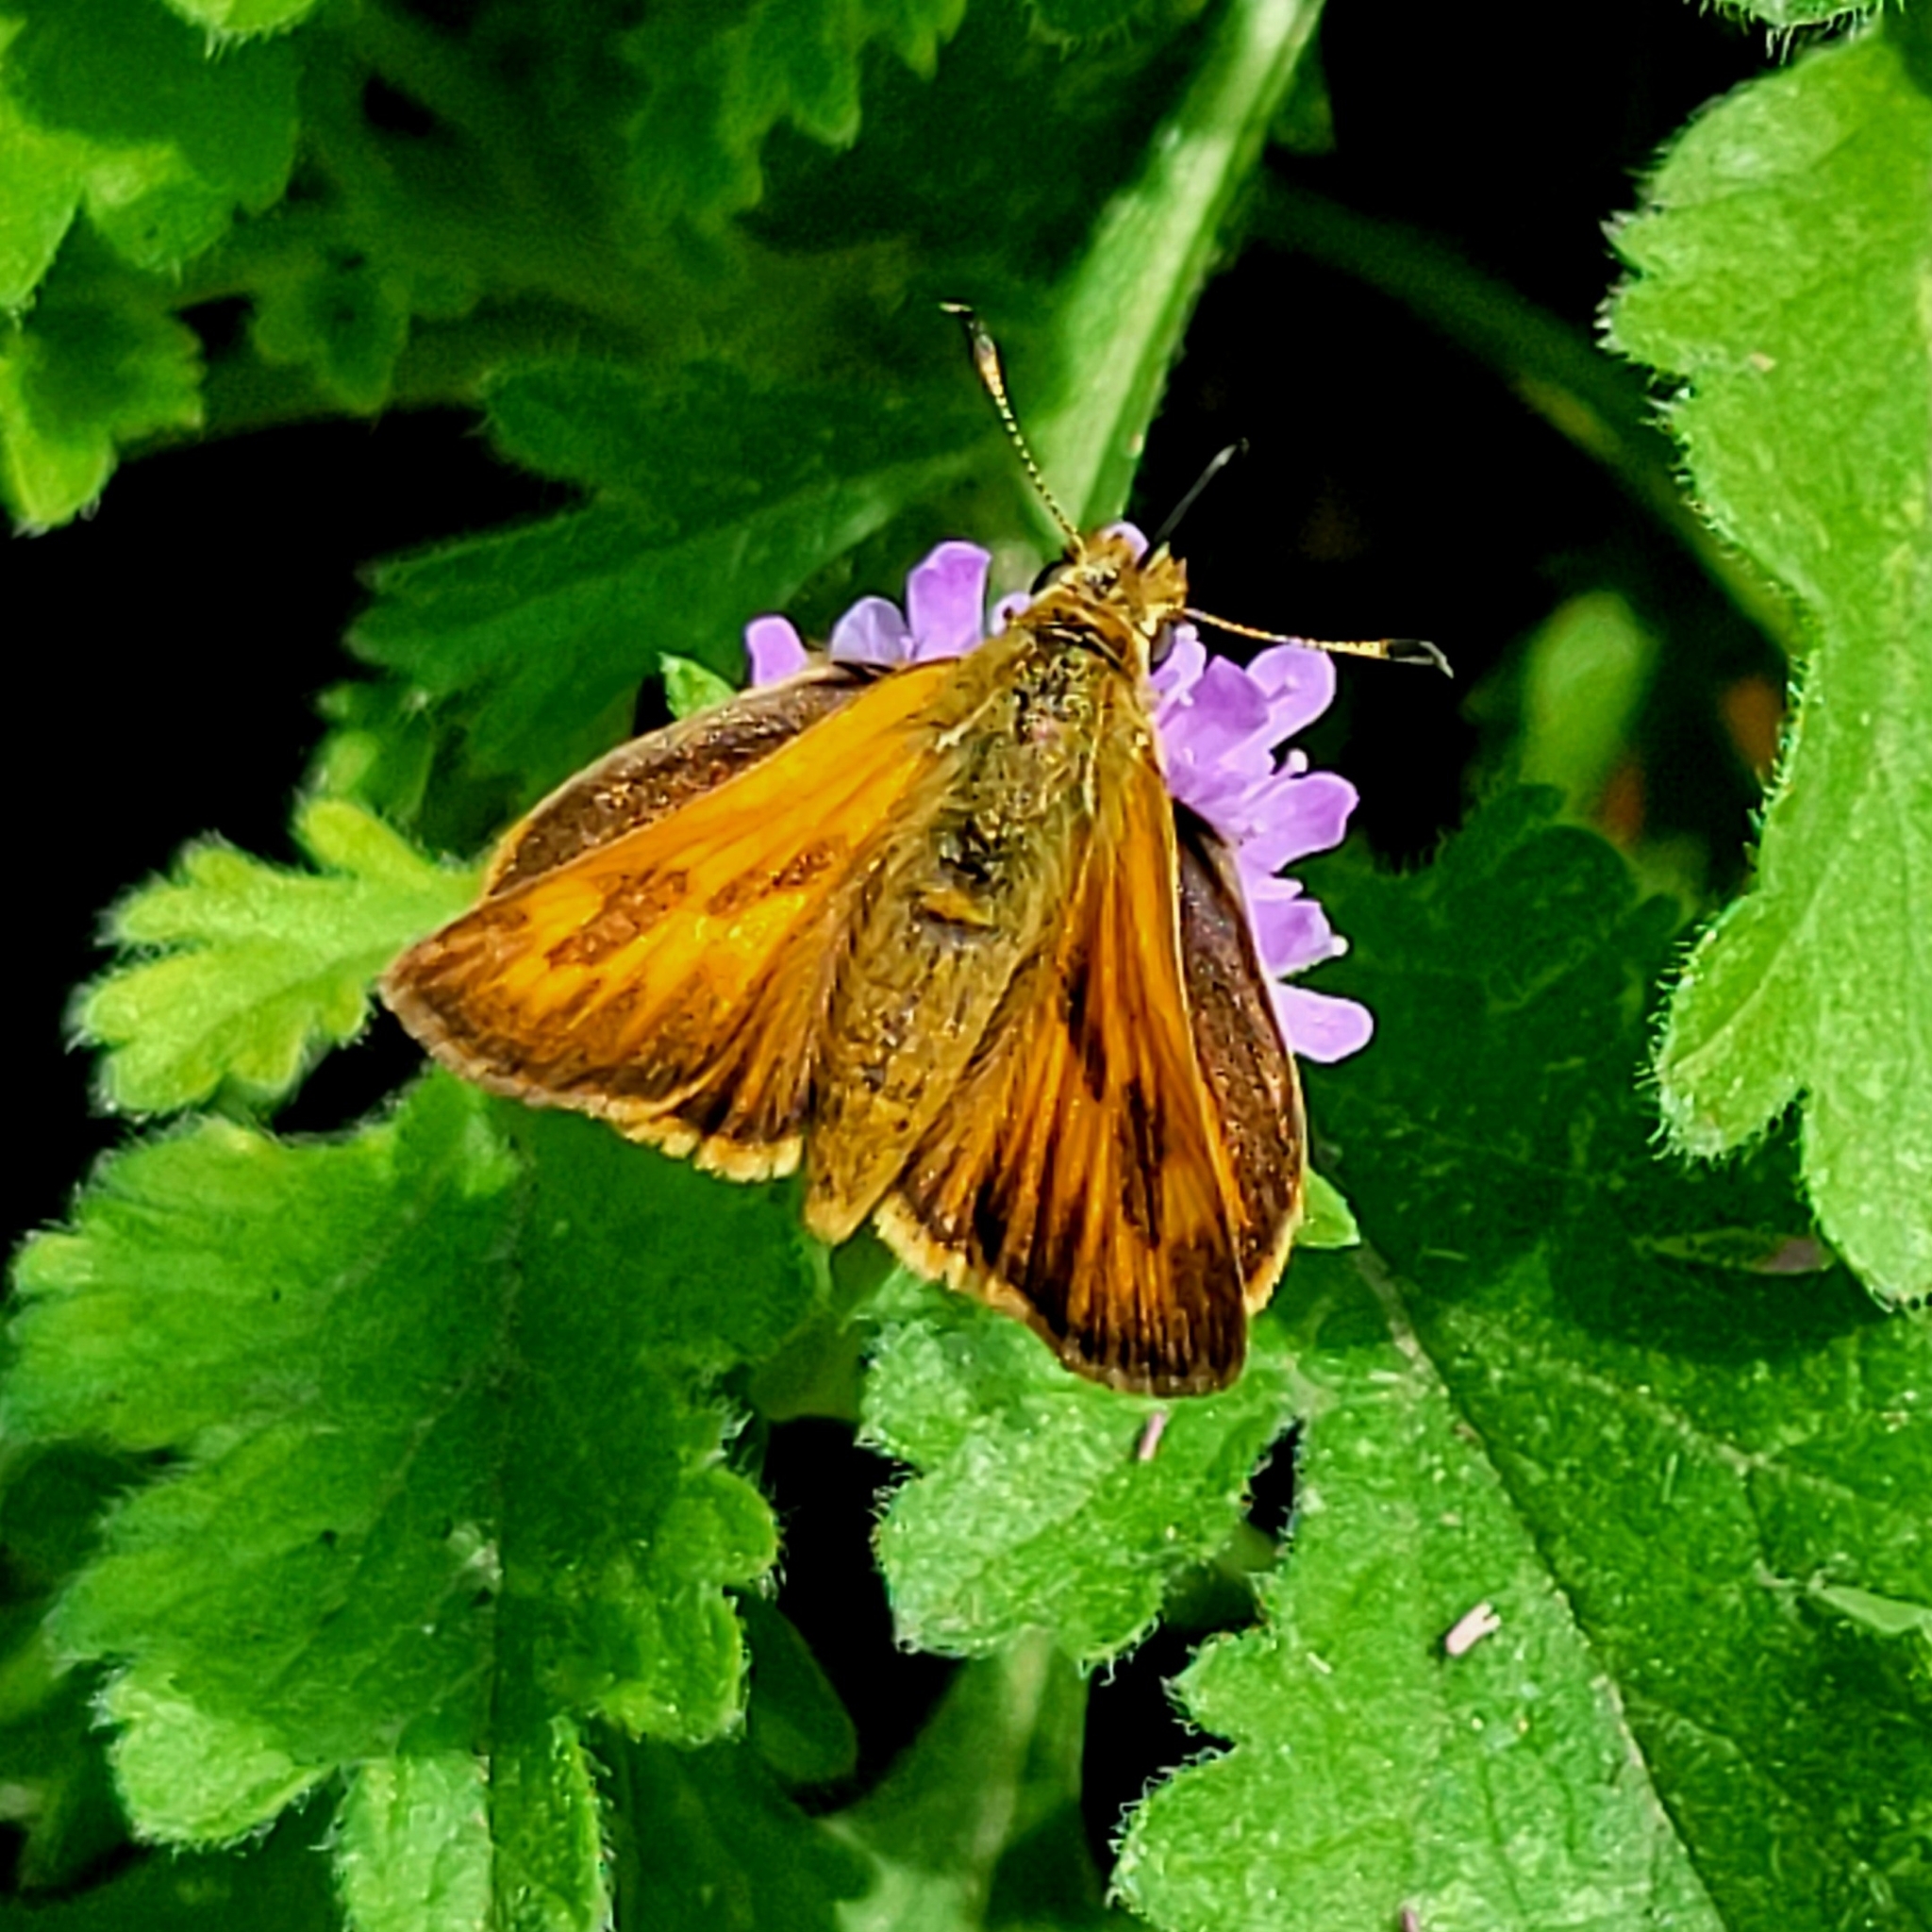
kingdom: Animalia
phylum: Arthropoda
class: Insecta
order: Lepidoptera
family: Hesperiidae
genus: Ochlodes
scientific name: Ochlodes sylvanoides
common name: Woodland skipper
